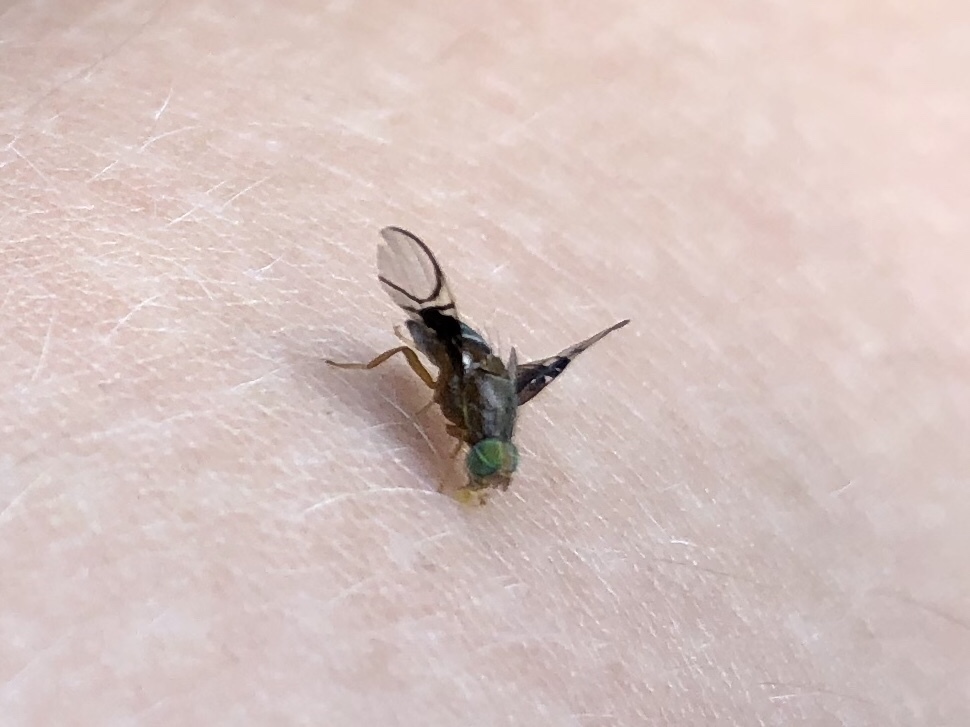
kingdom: Animalia
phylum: Arthropoda
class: Insecta
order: Diptera
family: Tephritidae
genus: Anomoia
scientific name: Anomoia purmunda
